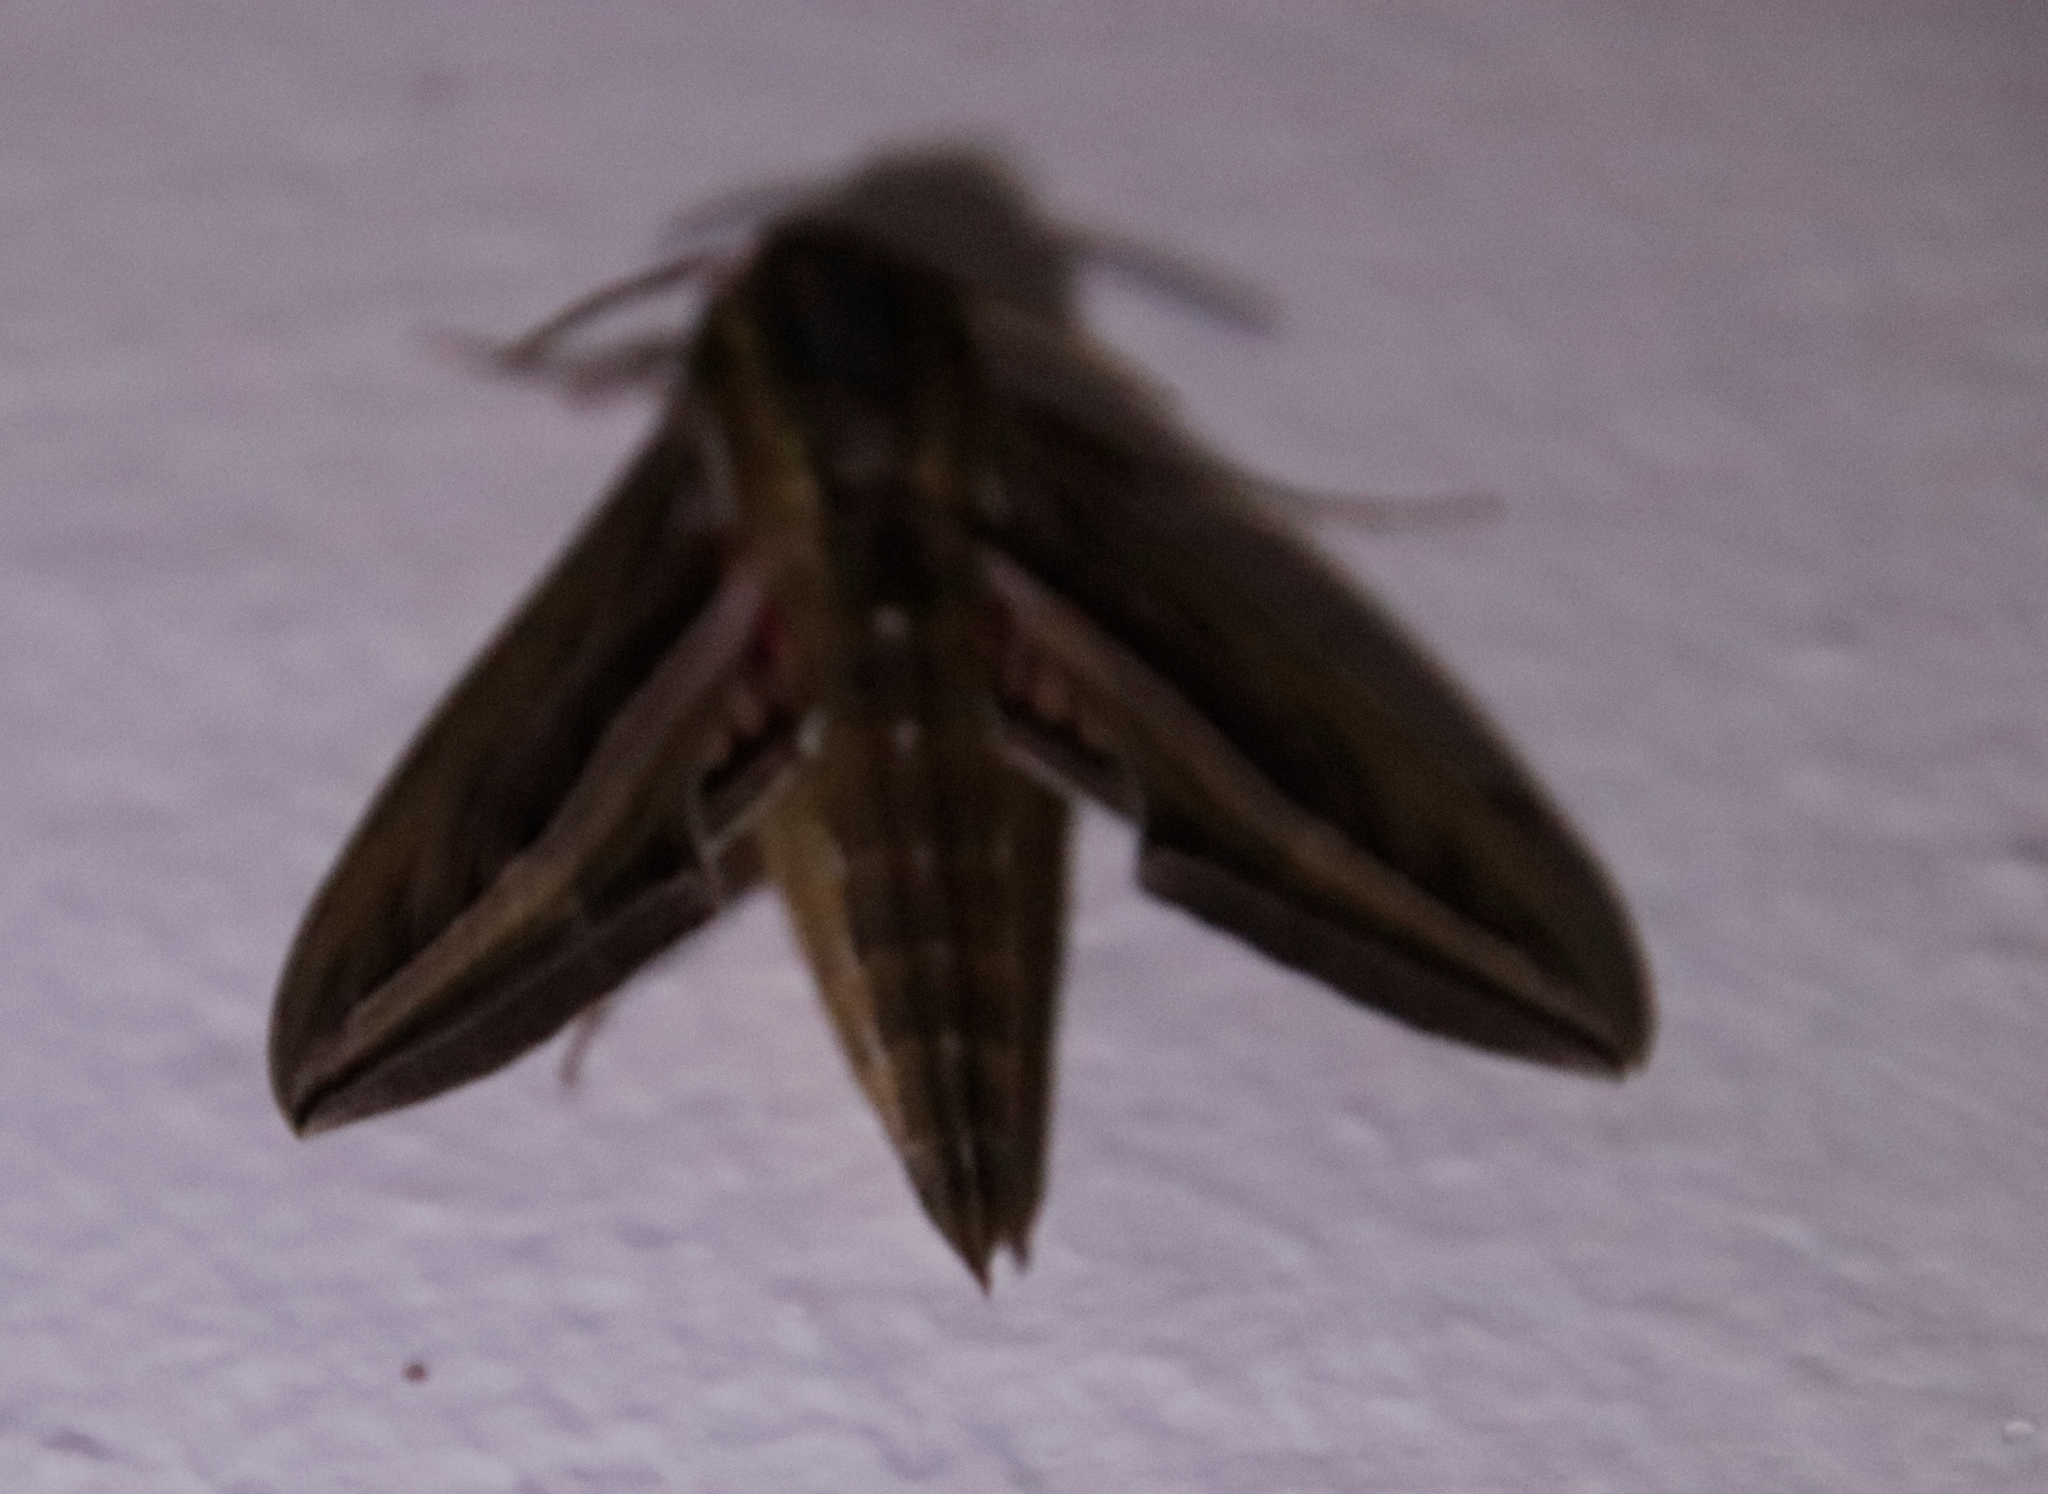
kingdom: Animalia
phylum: Arthropoda
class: Insecta
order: Lepidoptera
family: Sphingidae
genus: Hippotion
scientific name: Hippotion celerio
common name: Silver-striped hawk-moth
